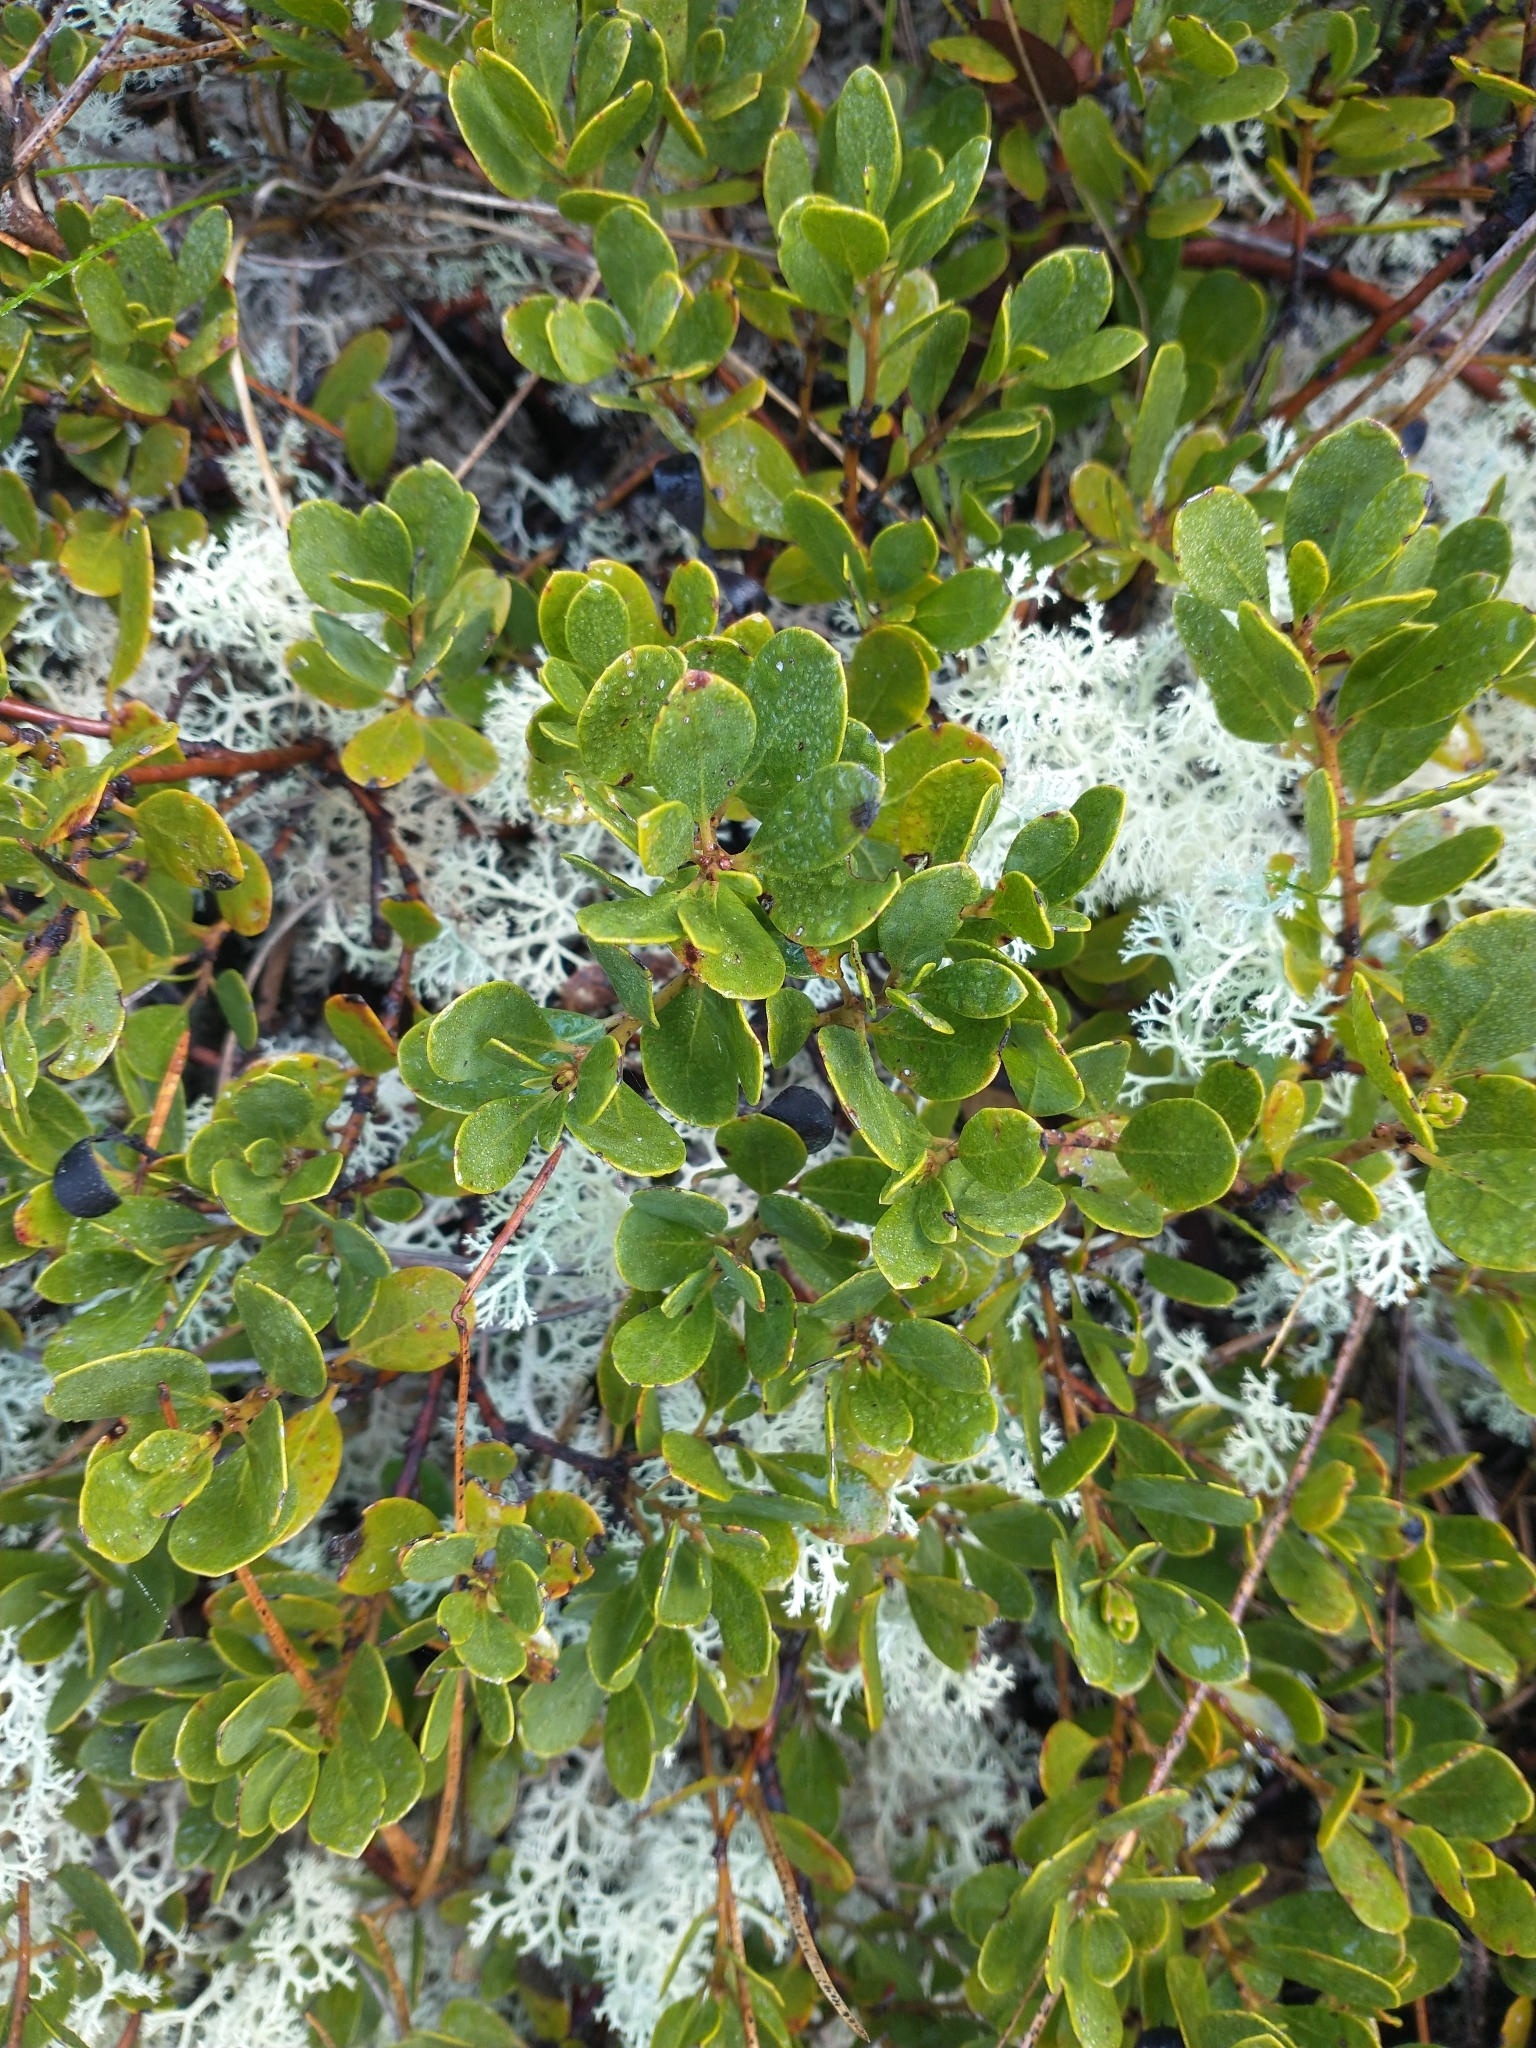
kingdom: Plantae
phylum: Tracheophyta
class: Magnoliopsida
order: Ericales
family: Ericaceae
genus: Arctostaphylos
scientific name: Arctostaphylos parvifolia
